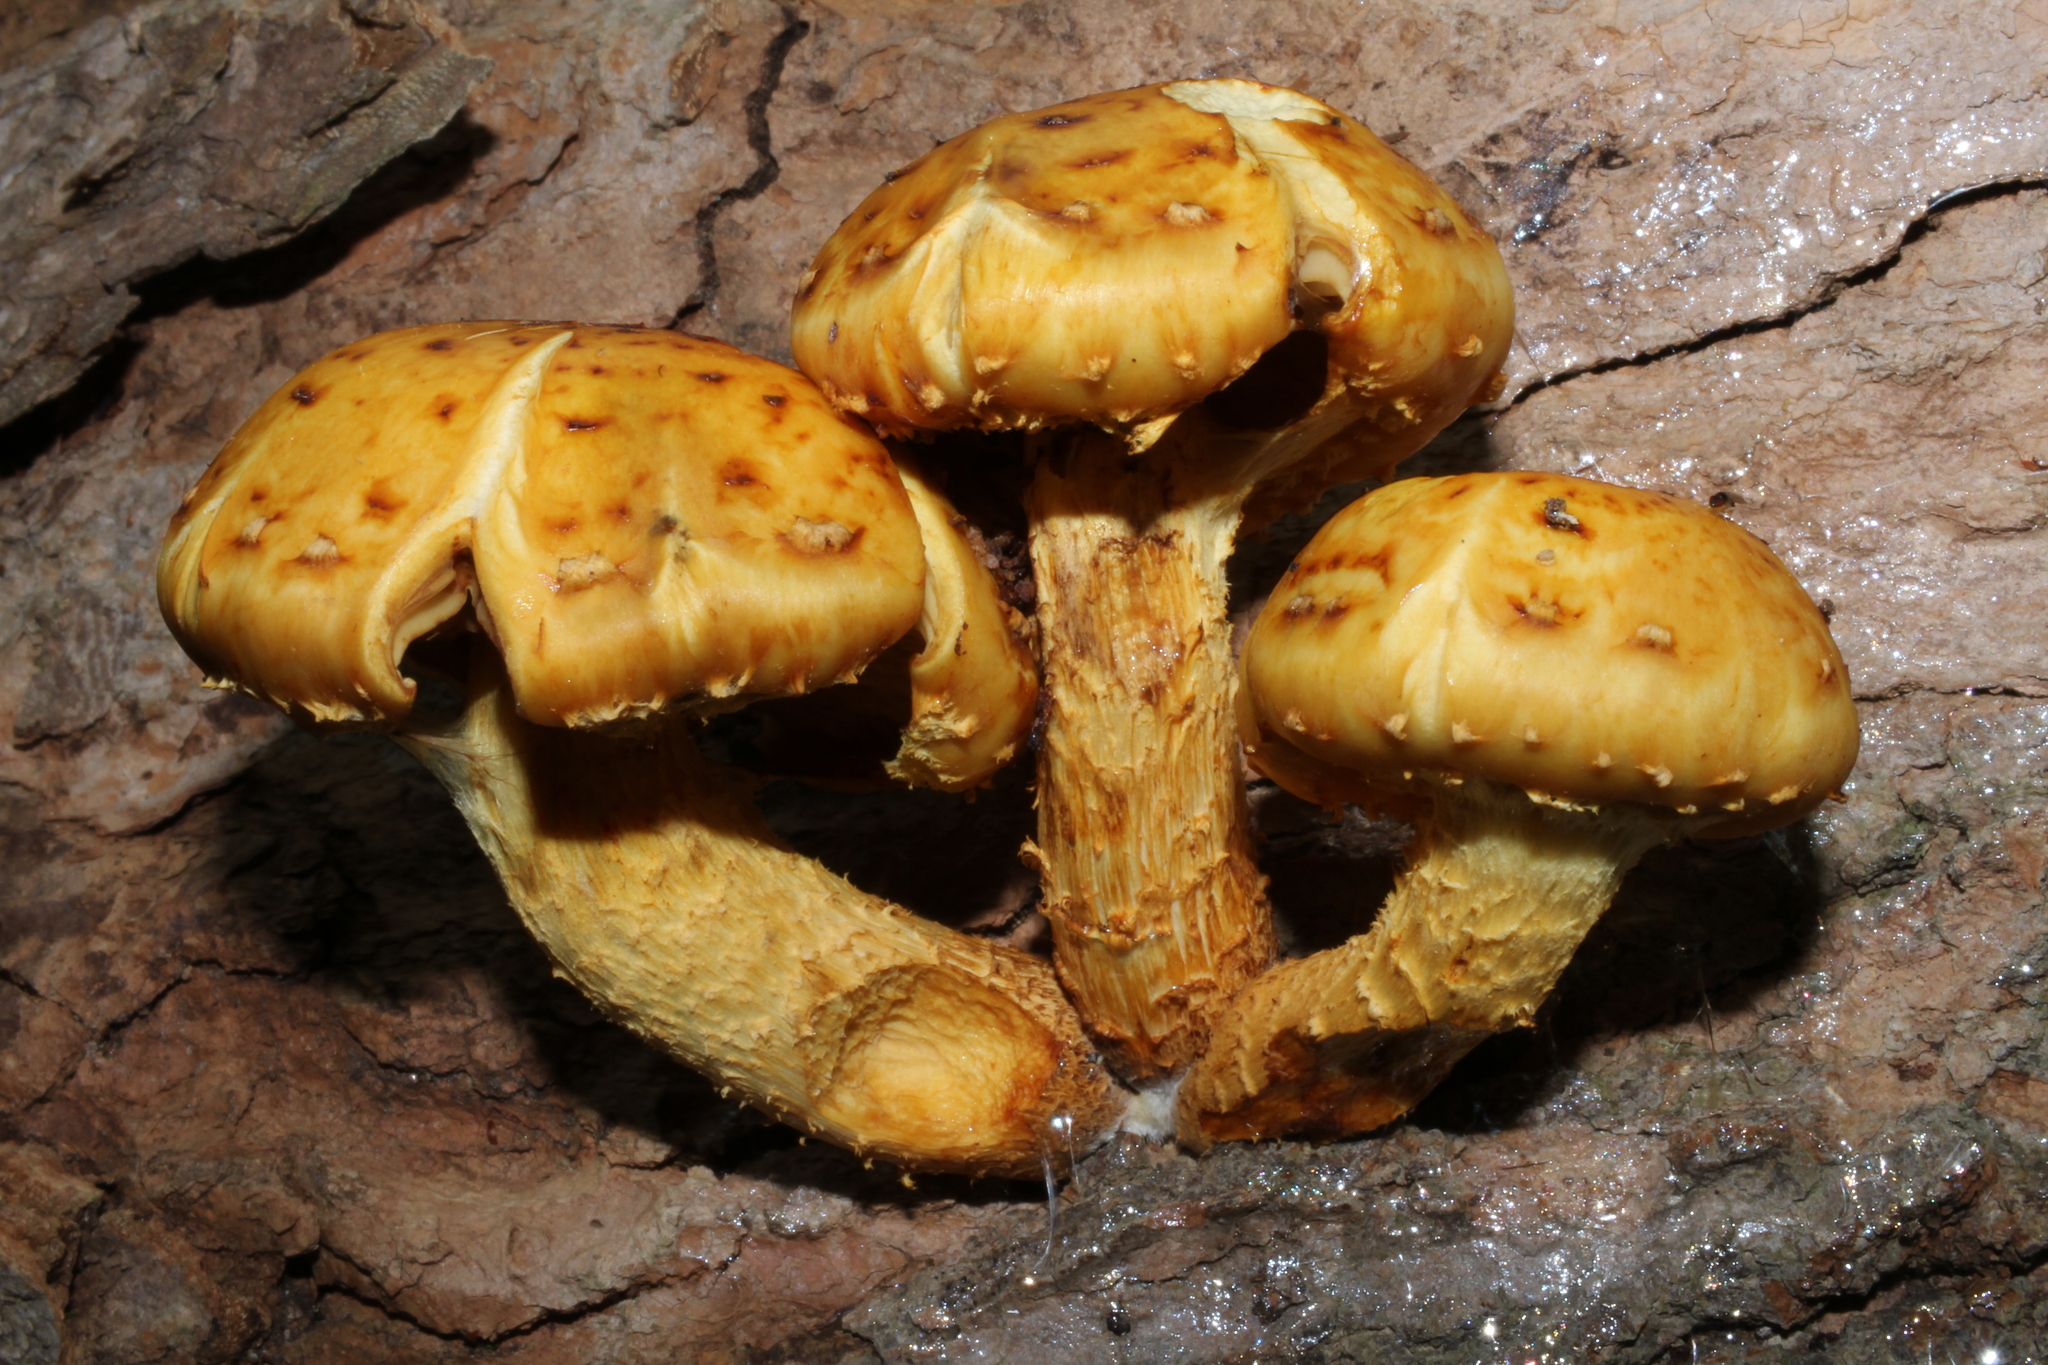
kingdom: Fungi
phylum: Basidiomycota
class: Agaricomycetes
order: Agaricales
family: Strophariaceae
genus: Pholiota
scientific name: Pholiota aurivella
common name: Golden scalycap
